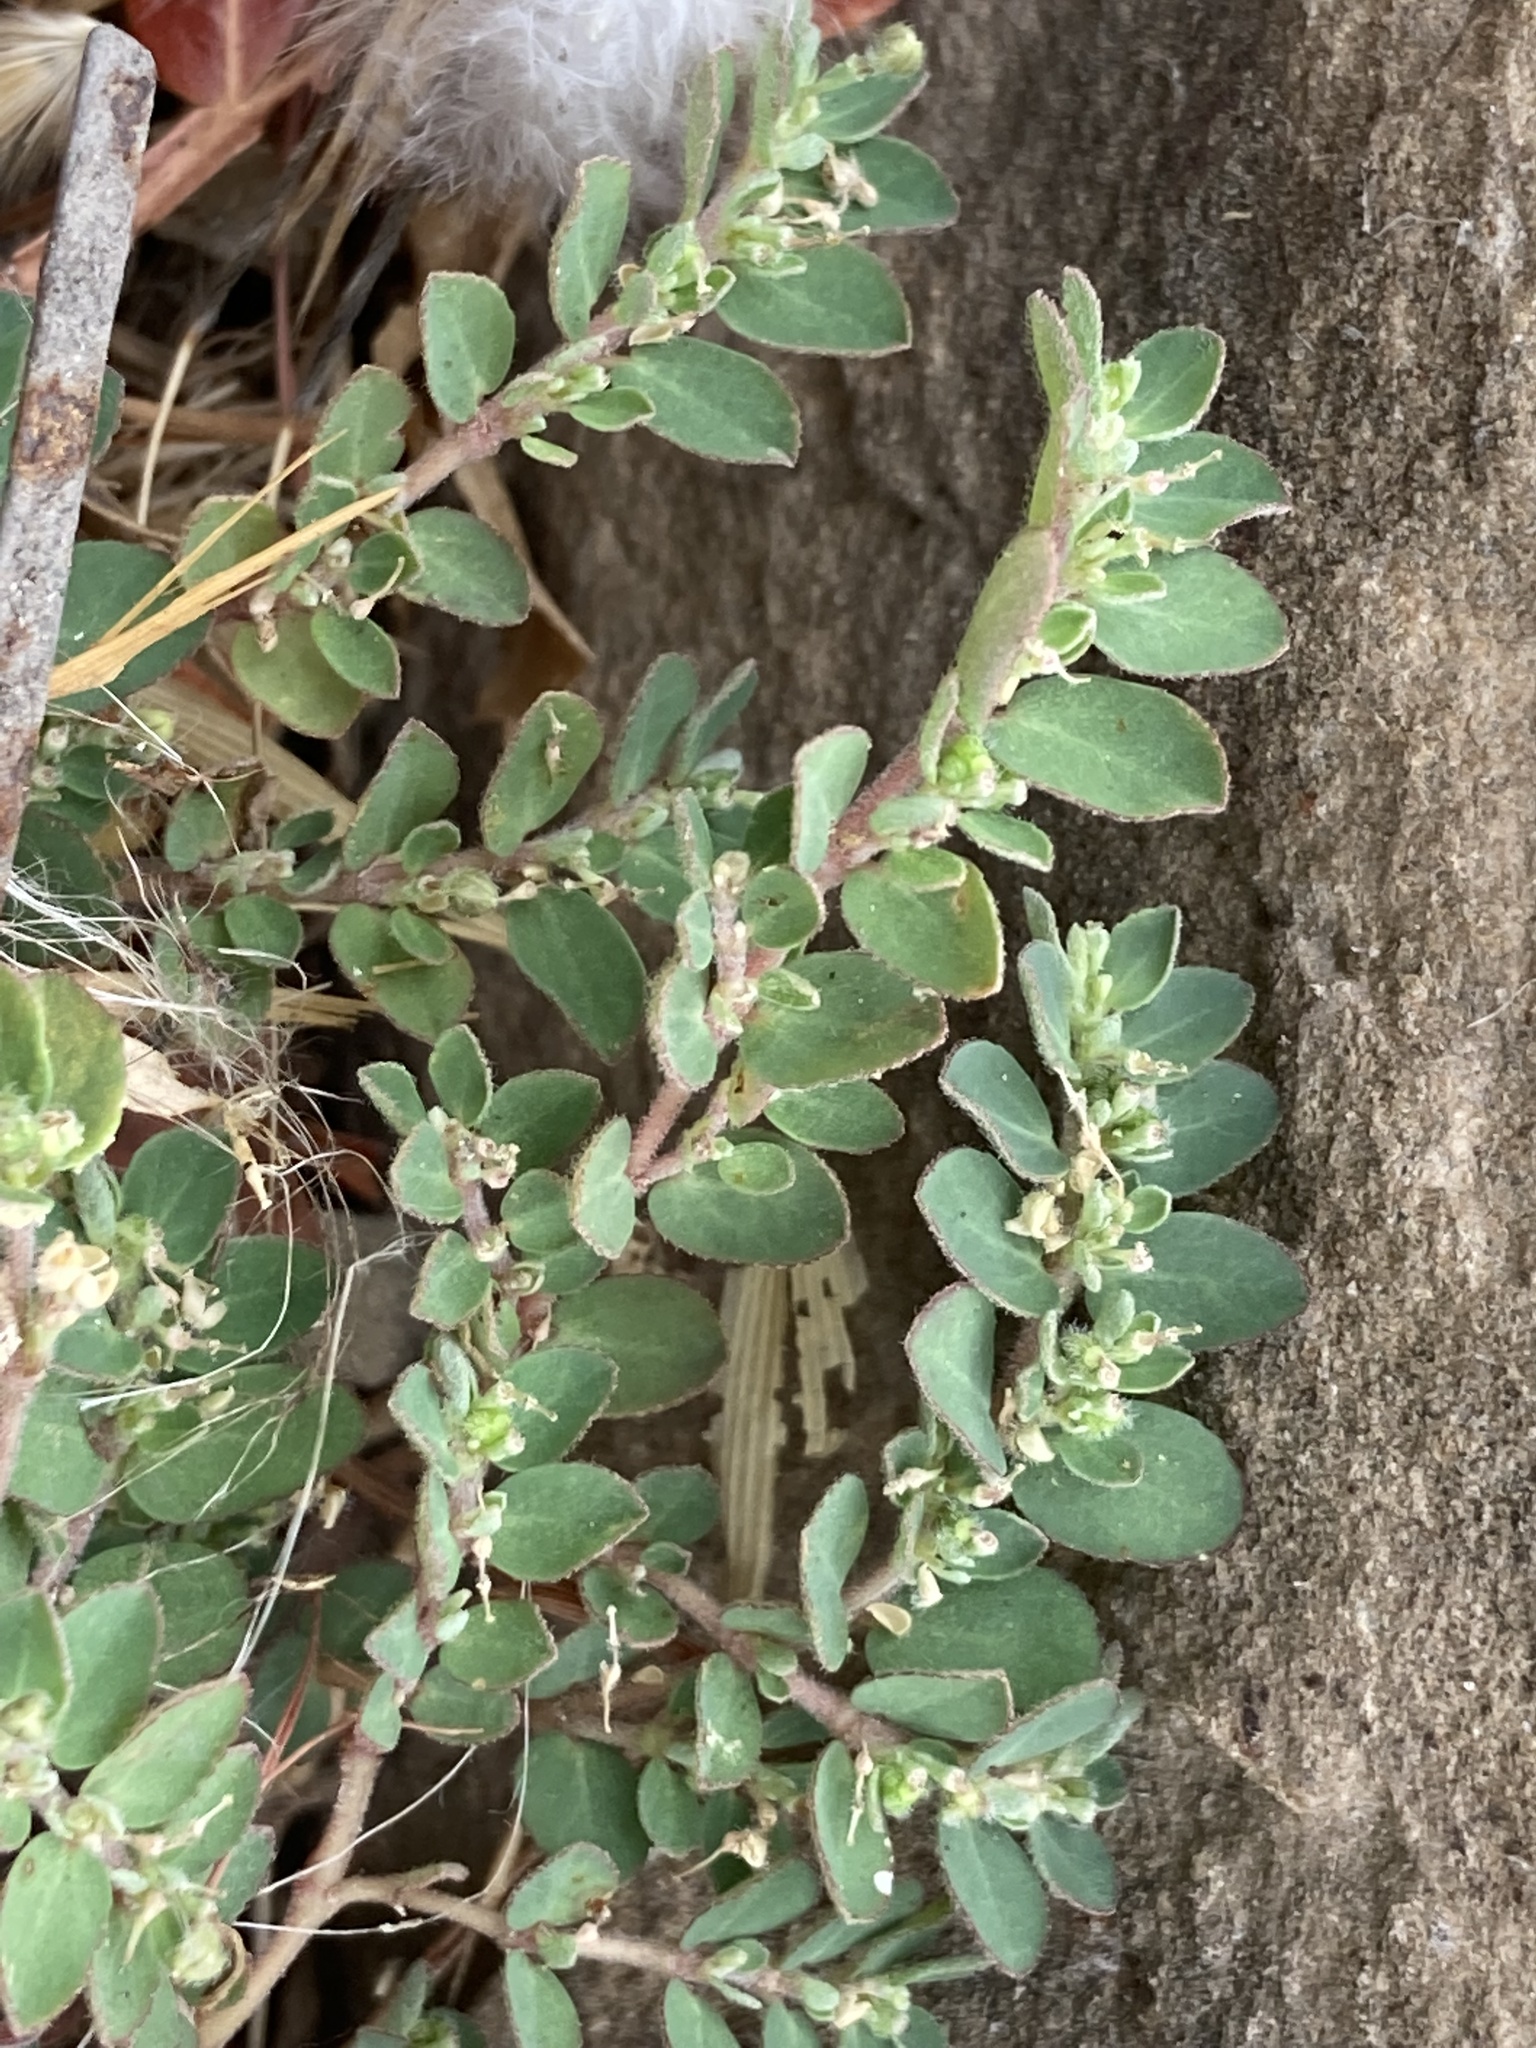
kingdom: Plantae
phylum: Tracheophyta
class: Magnoliopsida
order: Malpighiales
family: Euphorbiaceae
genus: Euphorbia
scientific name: Euphorbia prostrata
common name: Prostrate sandmat
